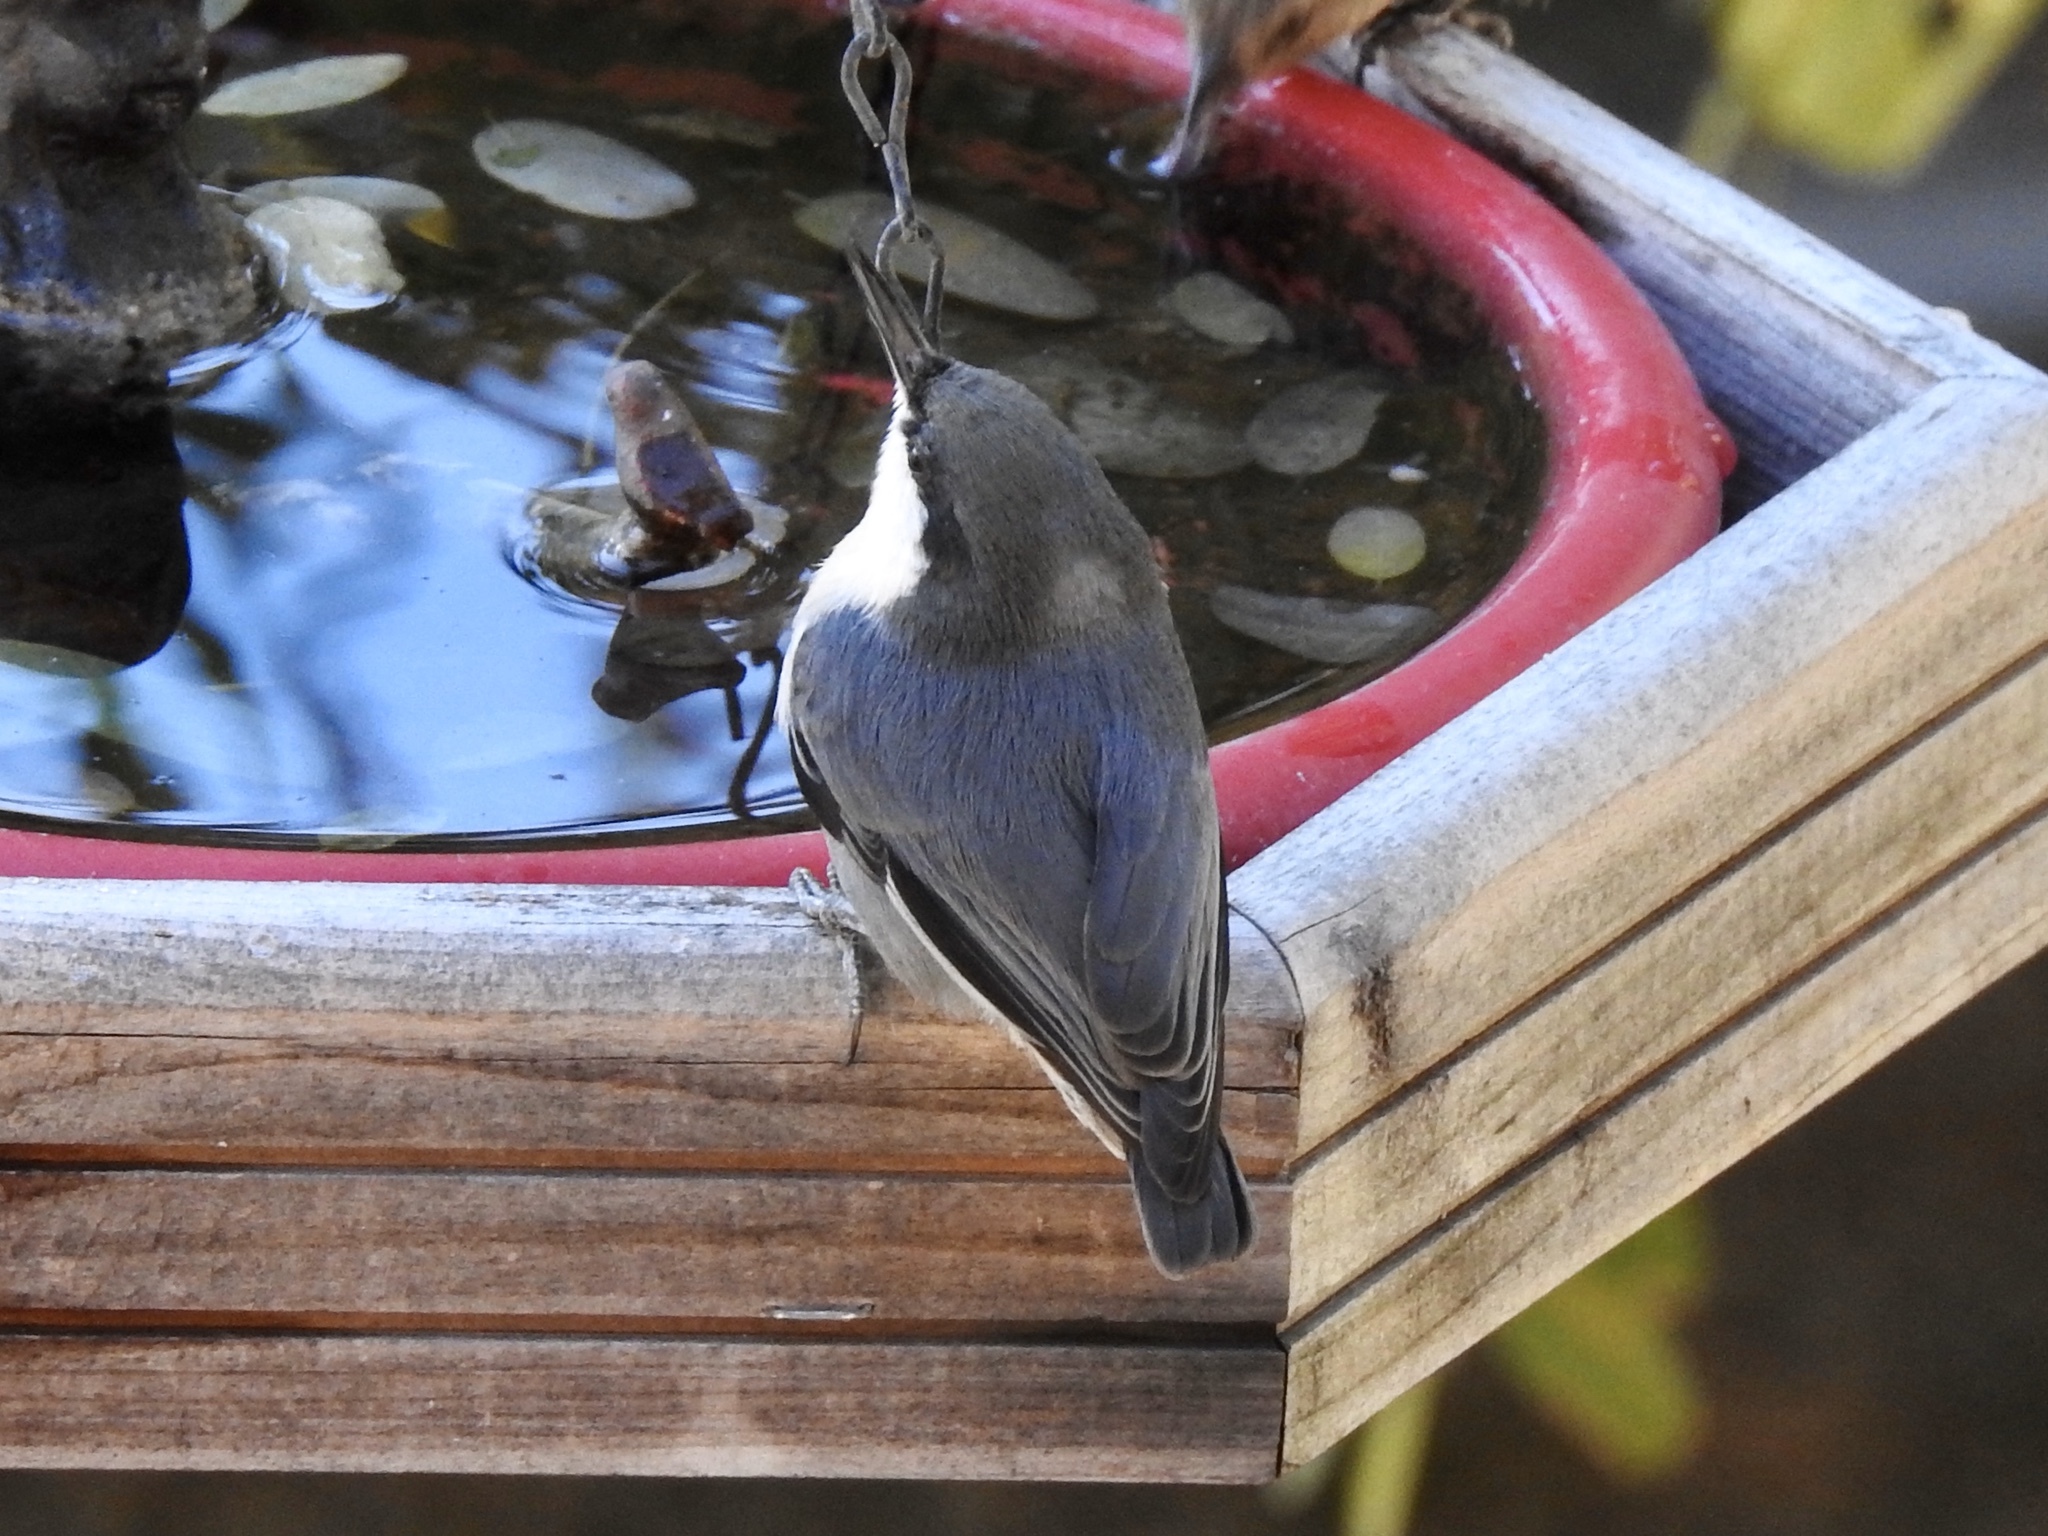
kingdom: Animalia
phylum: Chordata
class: Aves
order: Passeriformes
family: Sittidae
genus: Sitta
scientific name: Sitta pygmaea
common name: Pygmy nuthatch
